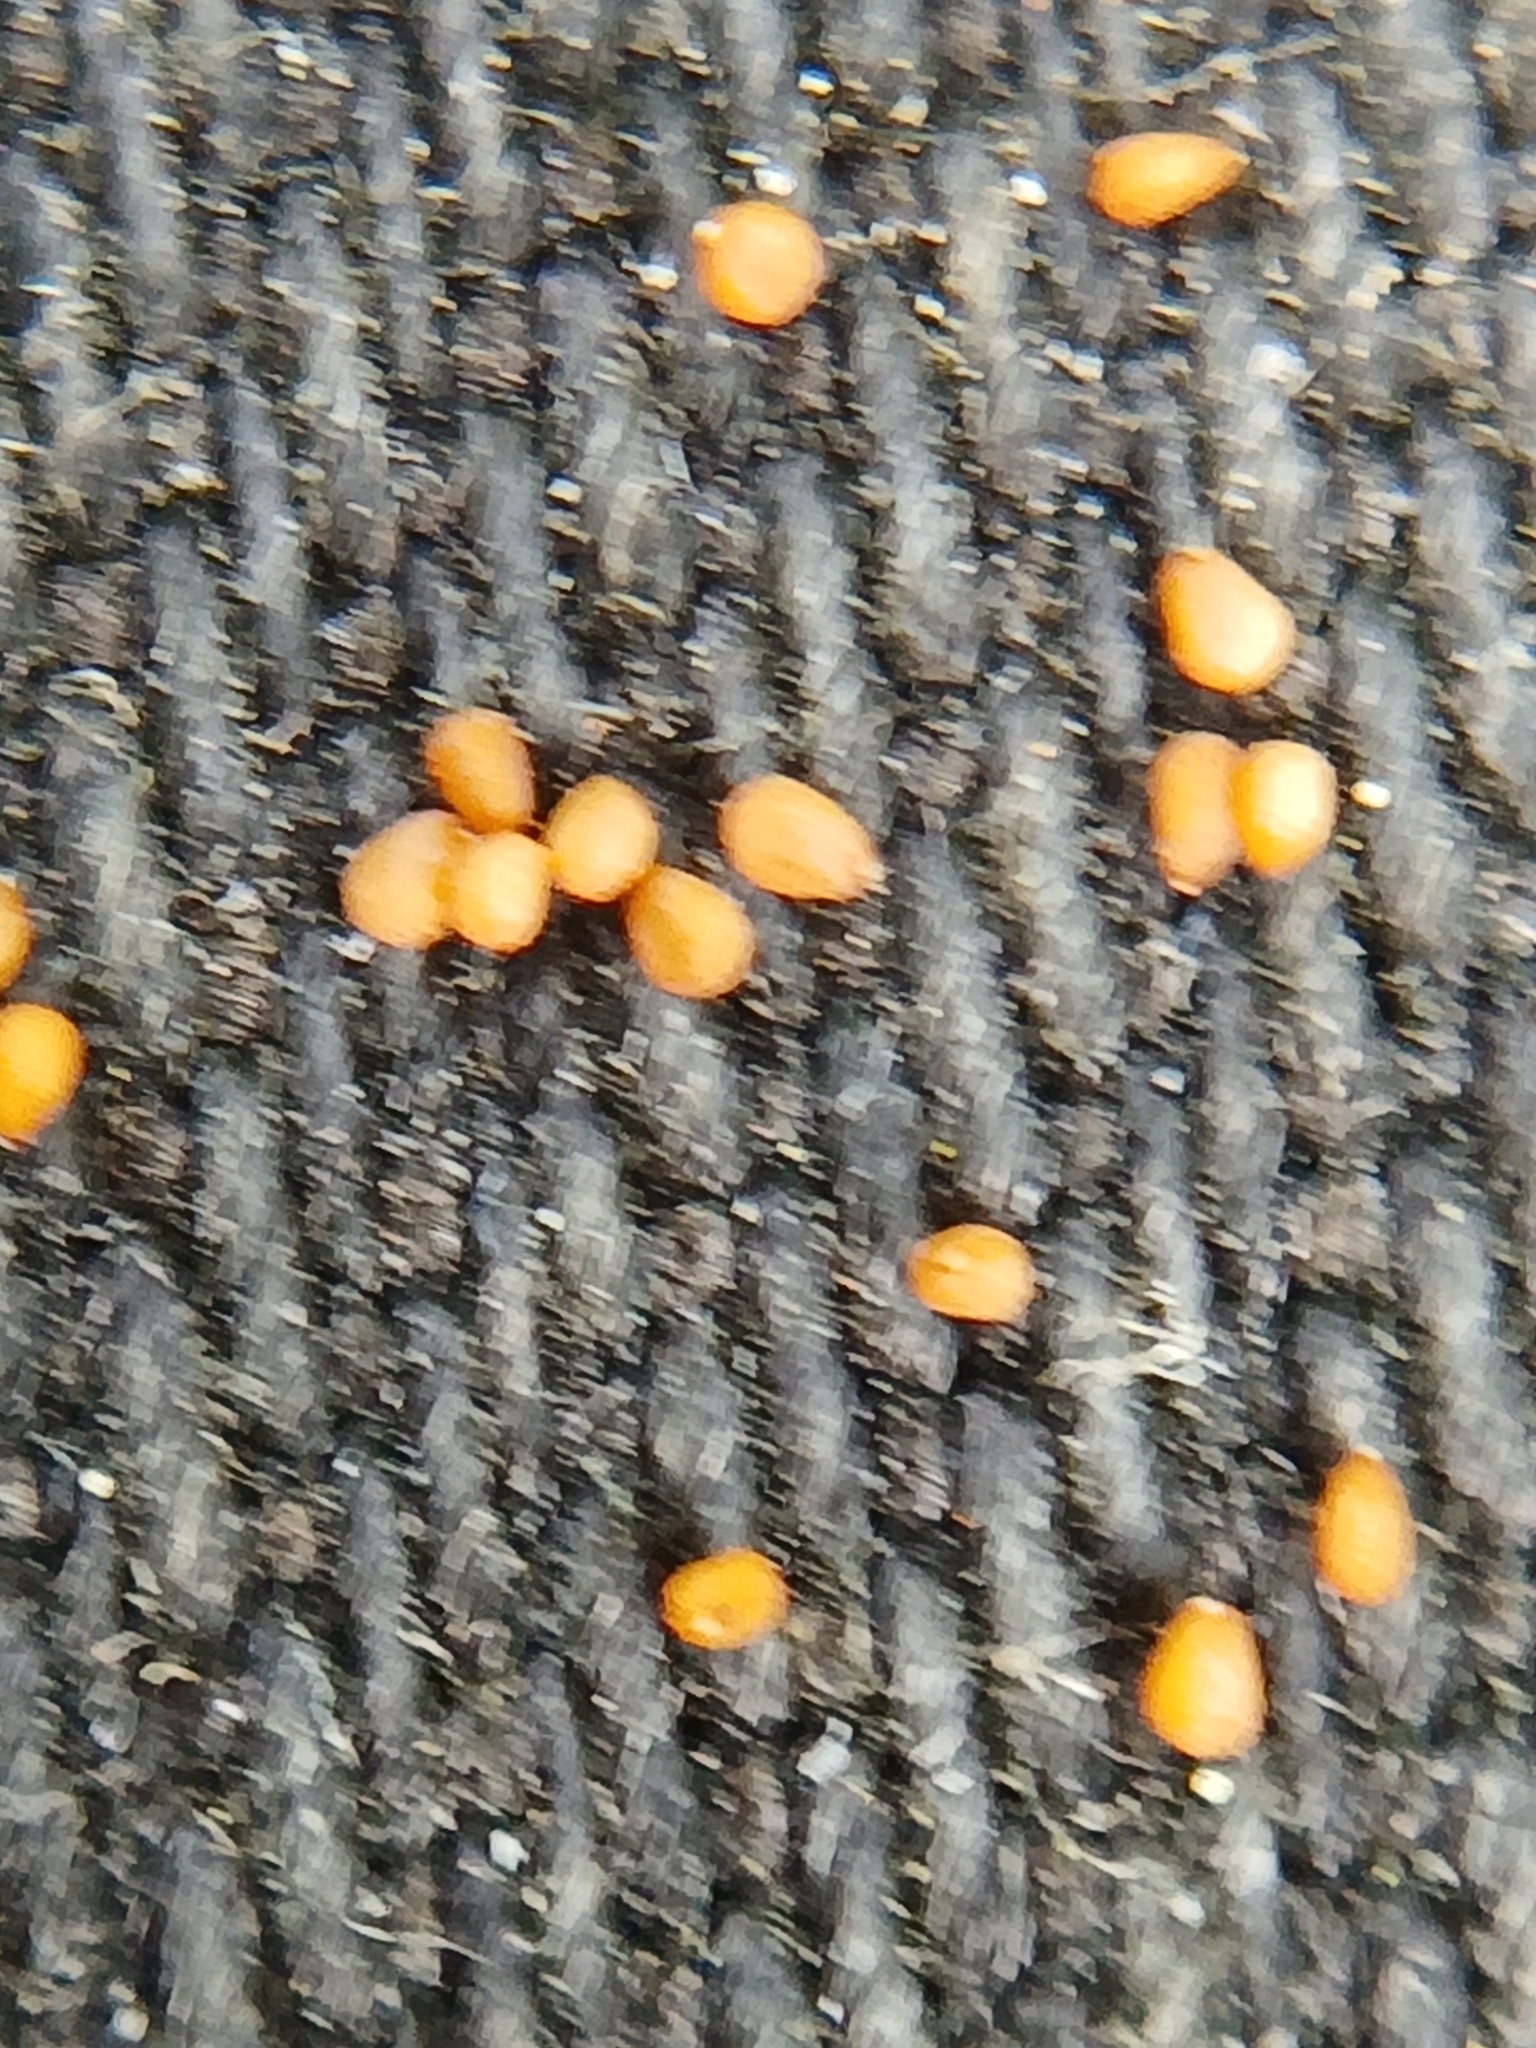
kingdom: Plantae
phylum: Tracheophyta
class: Magnoliopsida
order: Caryophyllales
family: Caryophyllaceae
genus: Cerastium
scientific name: Cerastium holosteoides
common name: Big chickweed
